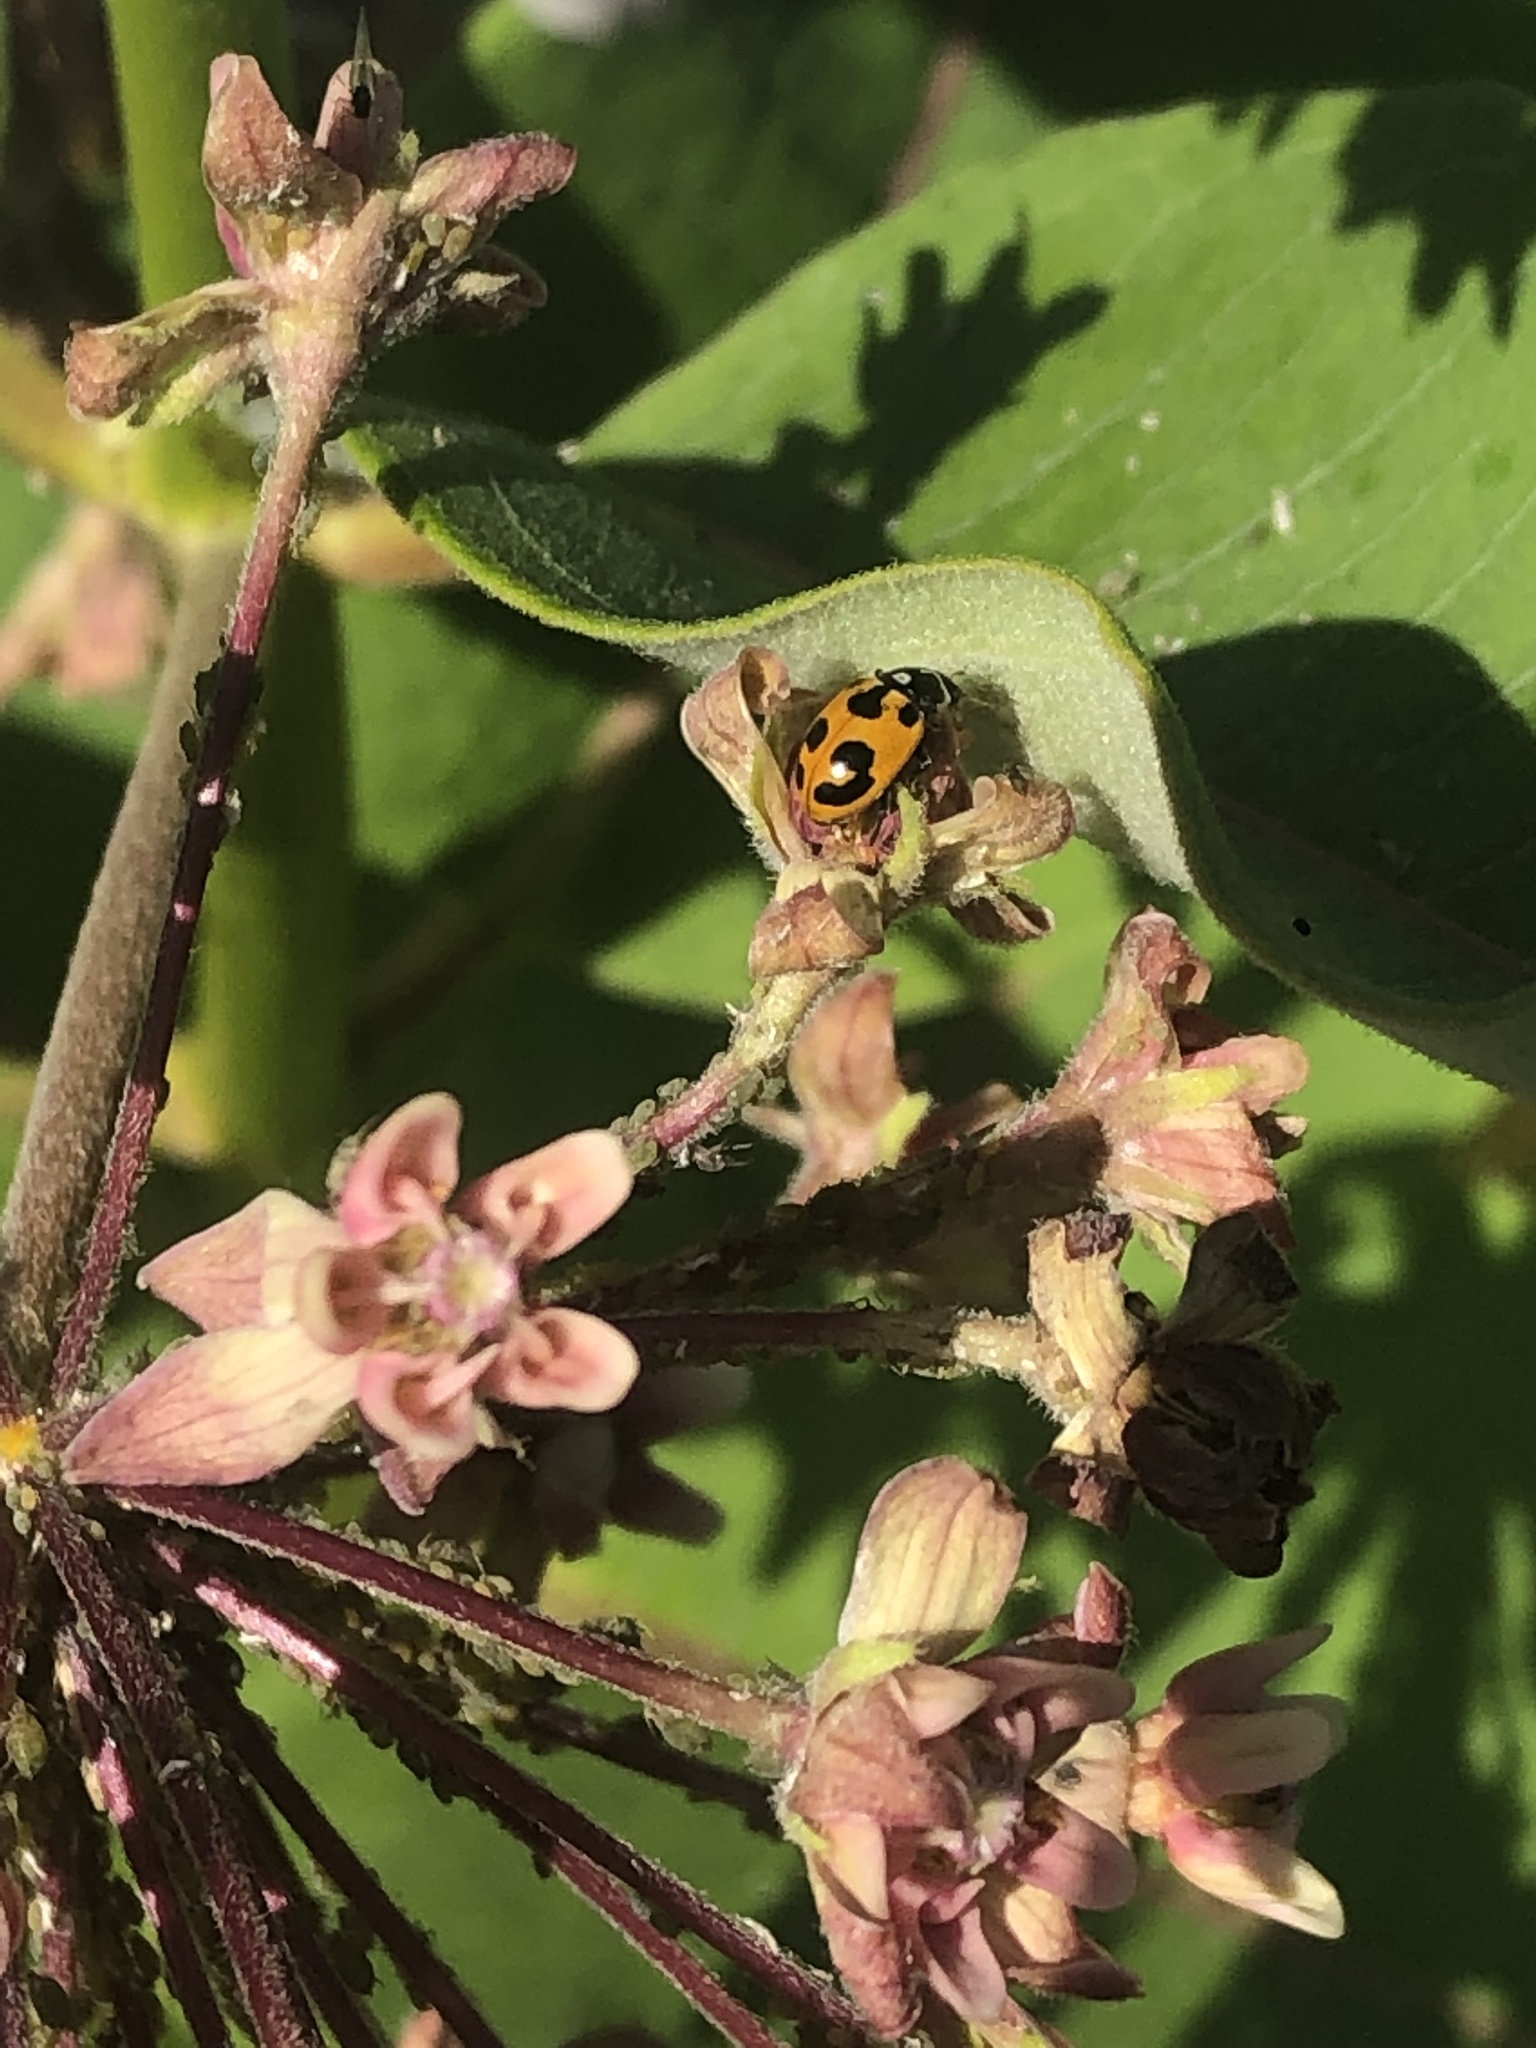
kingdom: Animalia
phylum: Arthropoda
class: Insecta
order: Coleoptera
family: Coccinellidae
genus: Hippodamia
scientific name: Hippodamia parenthesis
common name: Parenthesis lady beetle
